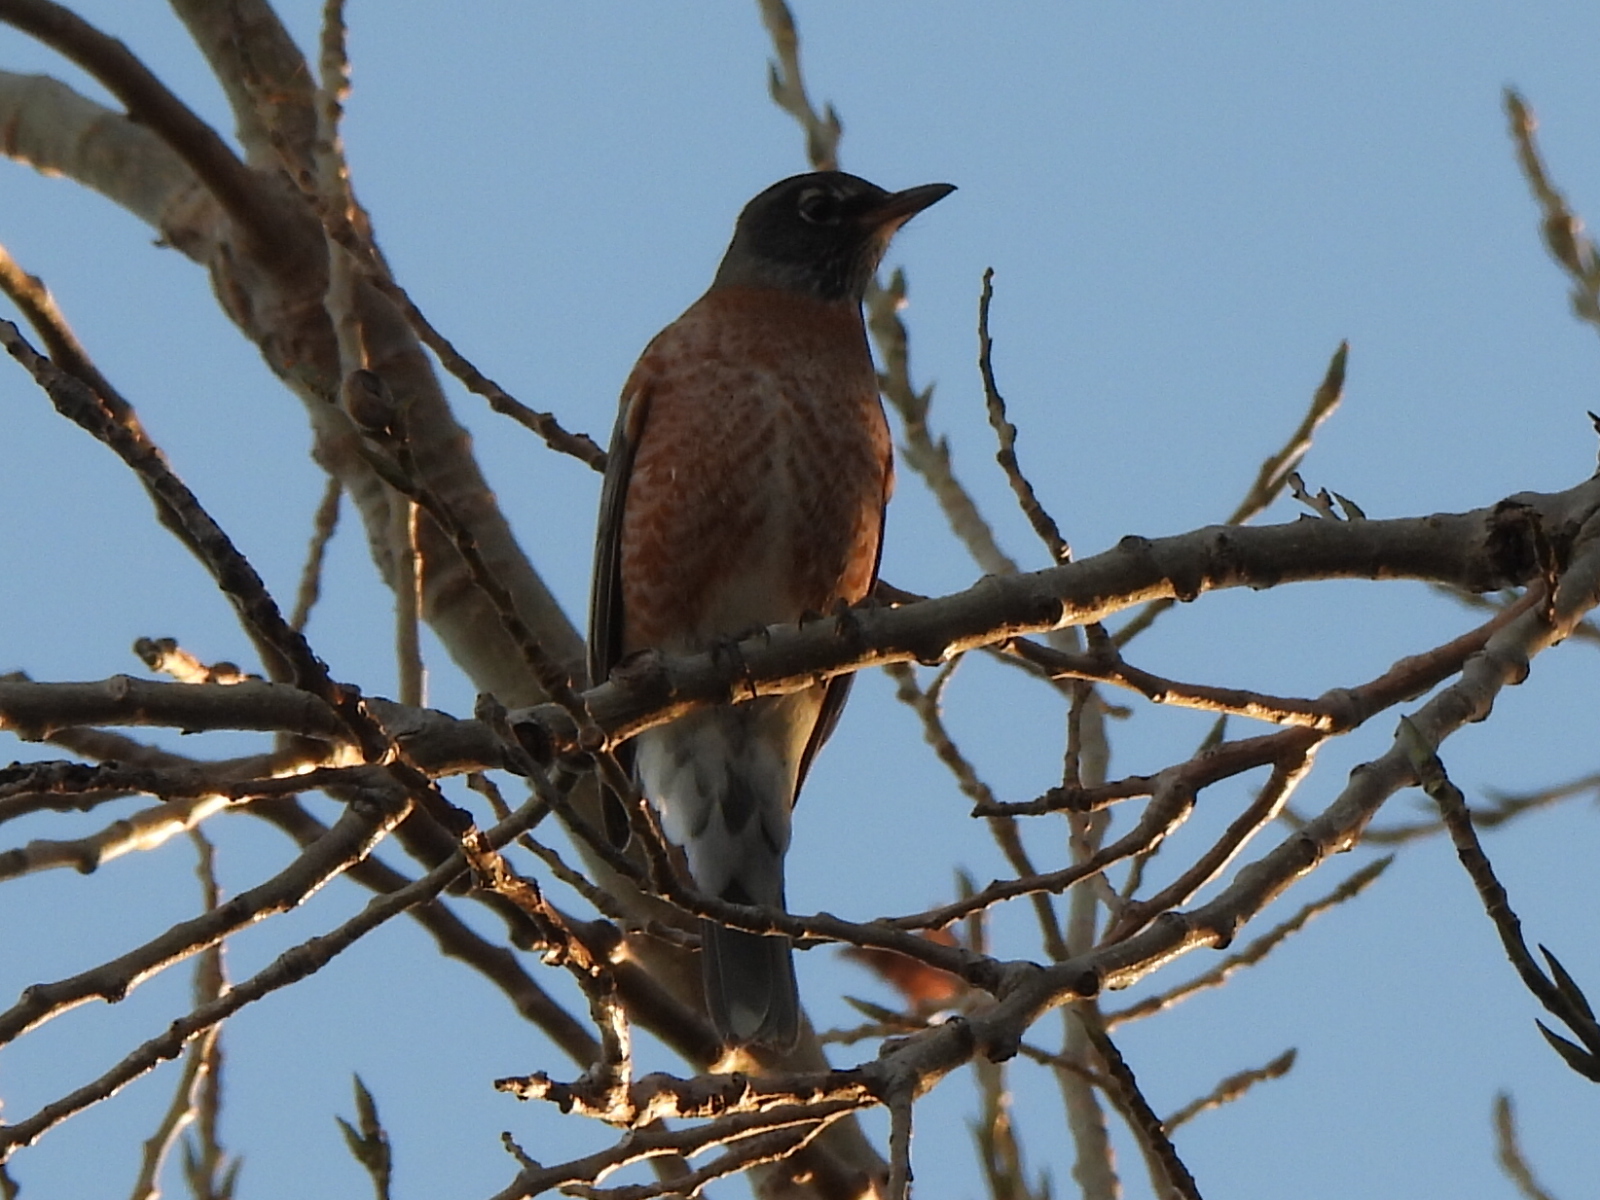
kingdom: Animalia
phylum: Chordata
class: Aves
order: Passeriformes
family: Turdidae
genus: Turdus
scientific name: Turdus migratorius
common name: American robin
